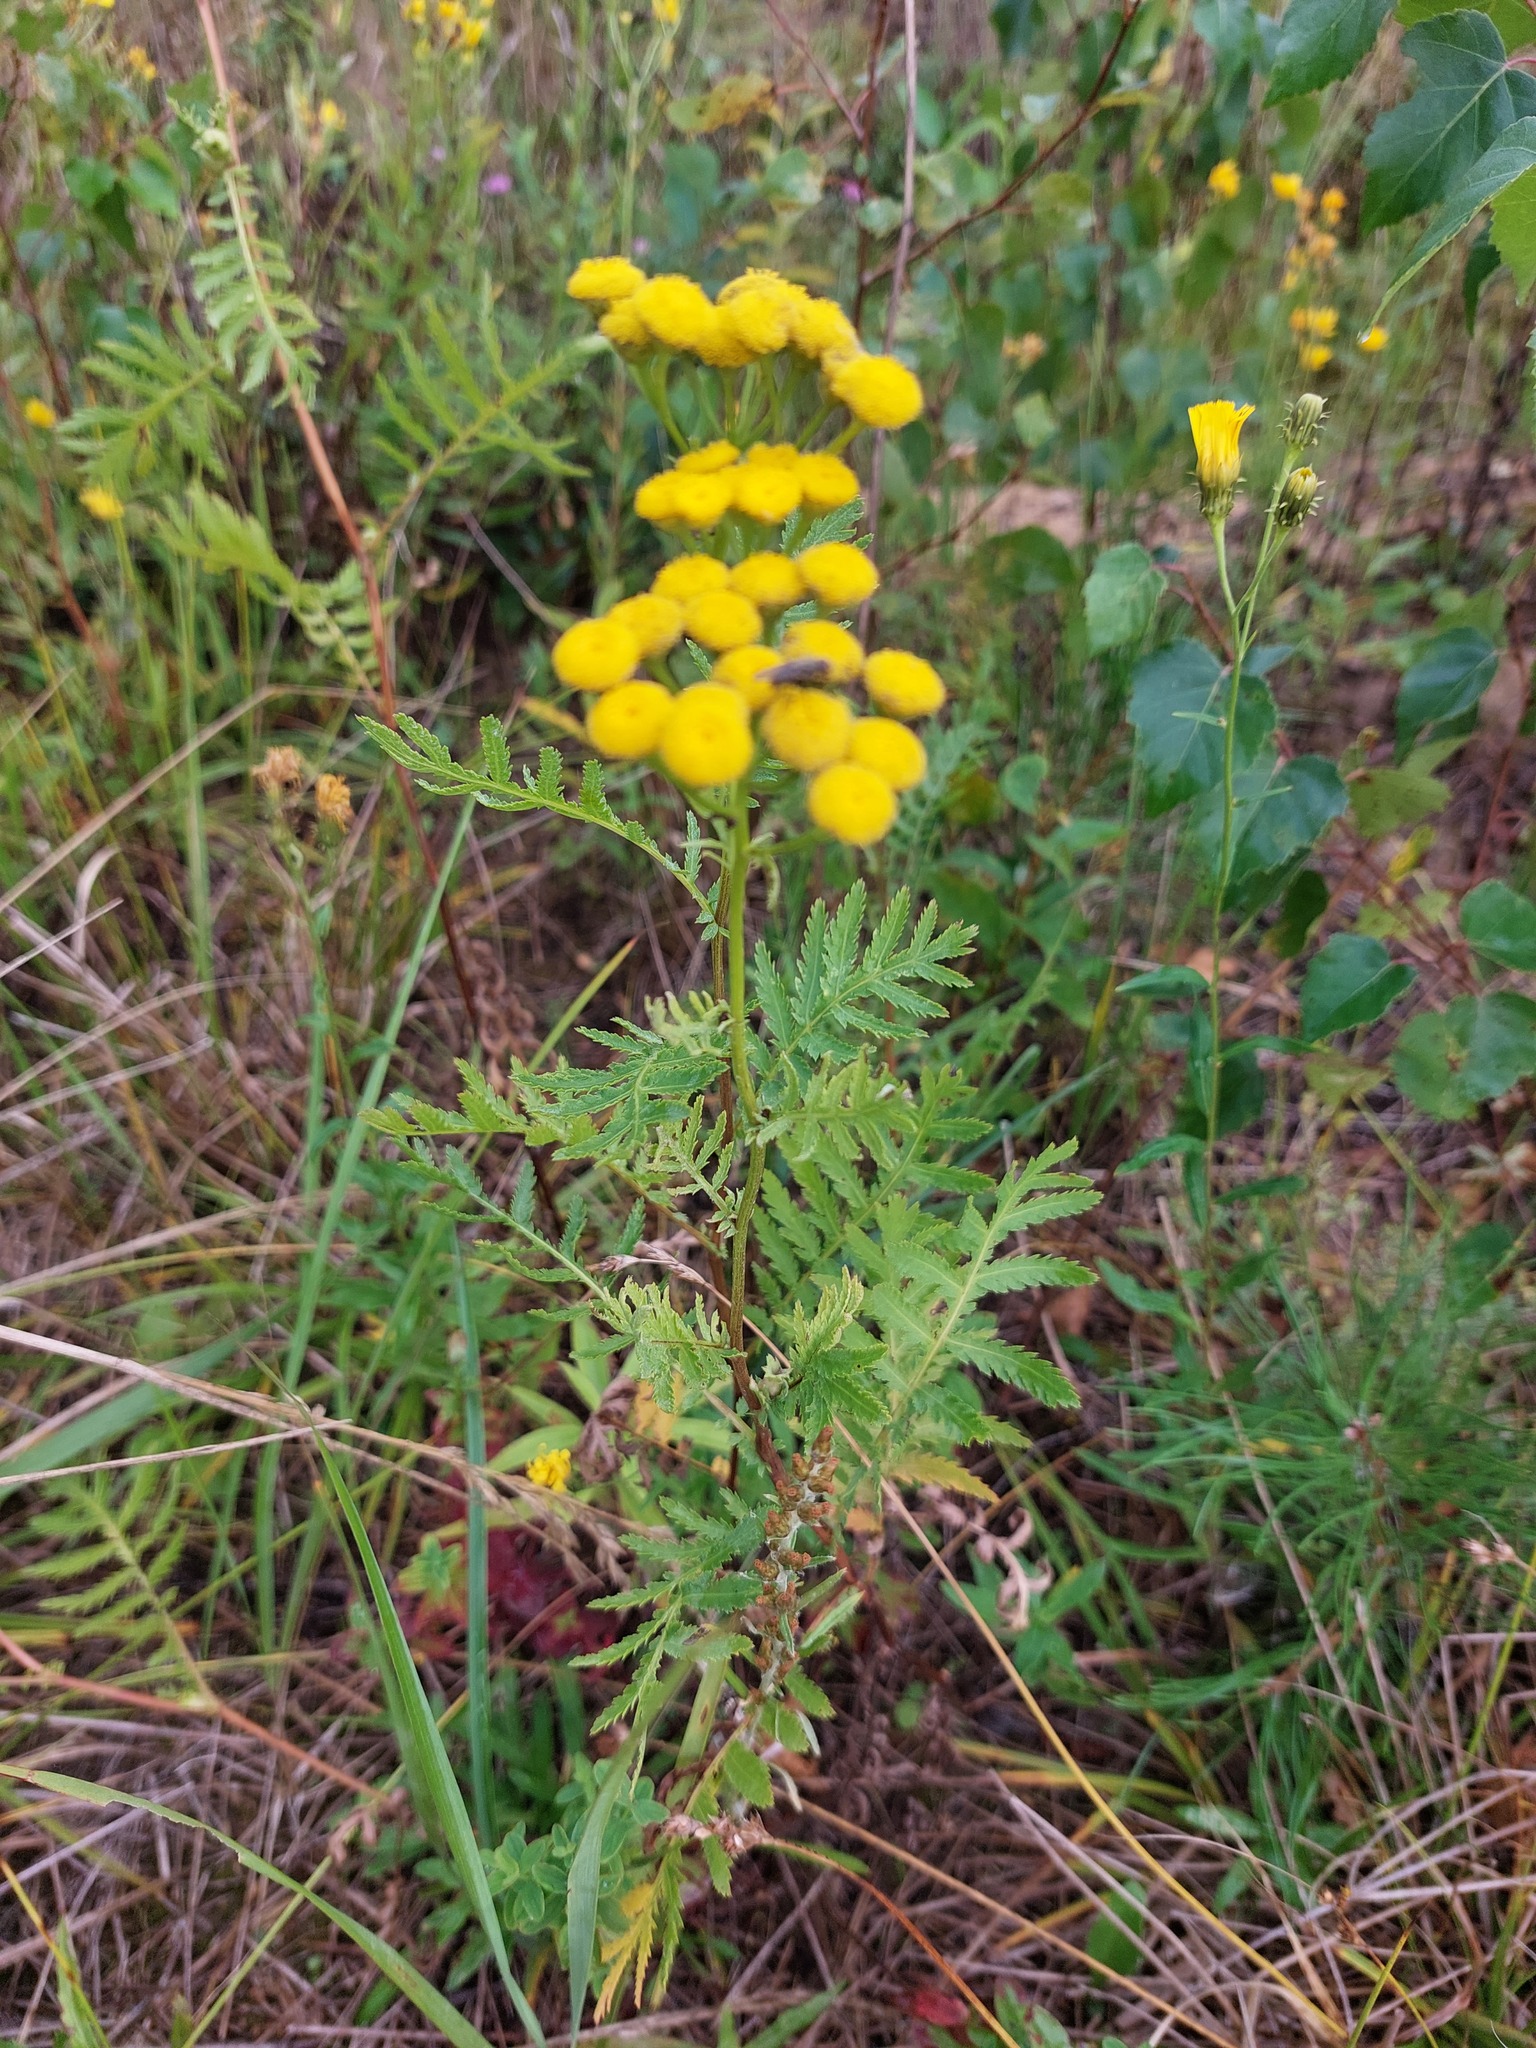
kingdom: Plantae
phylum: Tracheophyta
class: Magnoliopsida
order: Asterales
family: Asteraceae
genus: Tanacetum
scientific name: Tanacetum vulgare
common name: Common tansy
